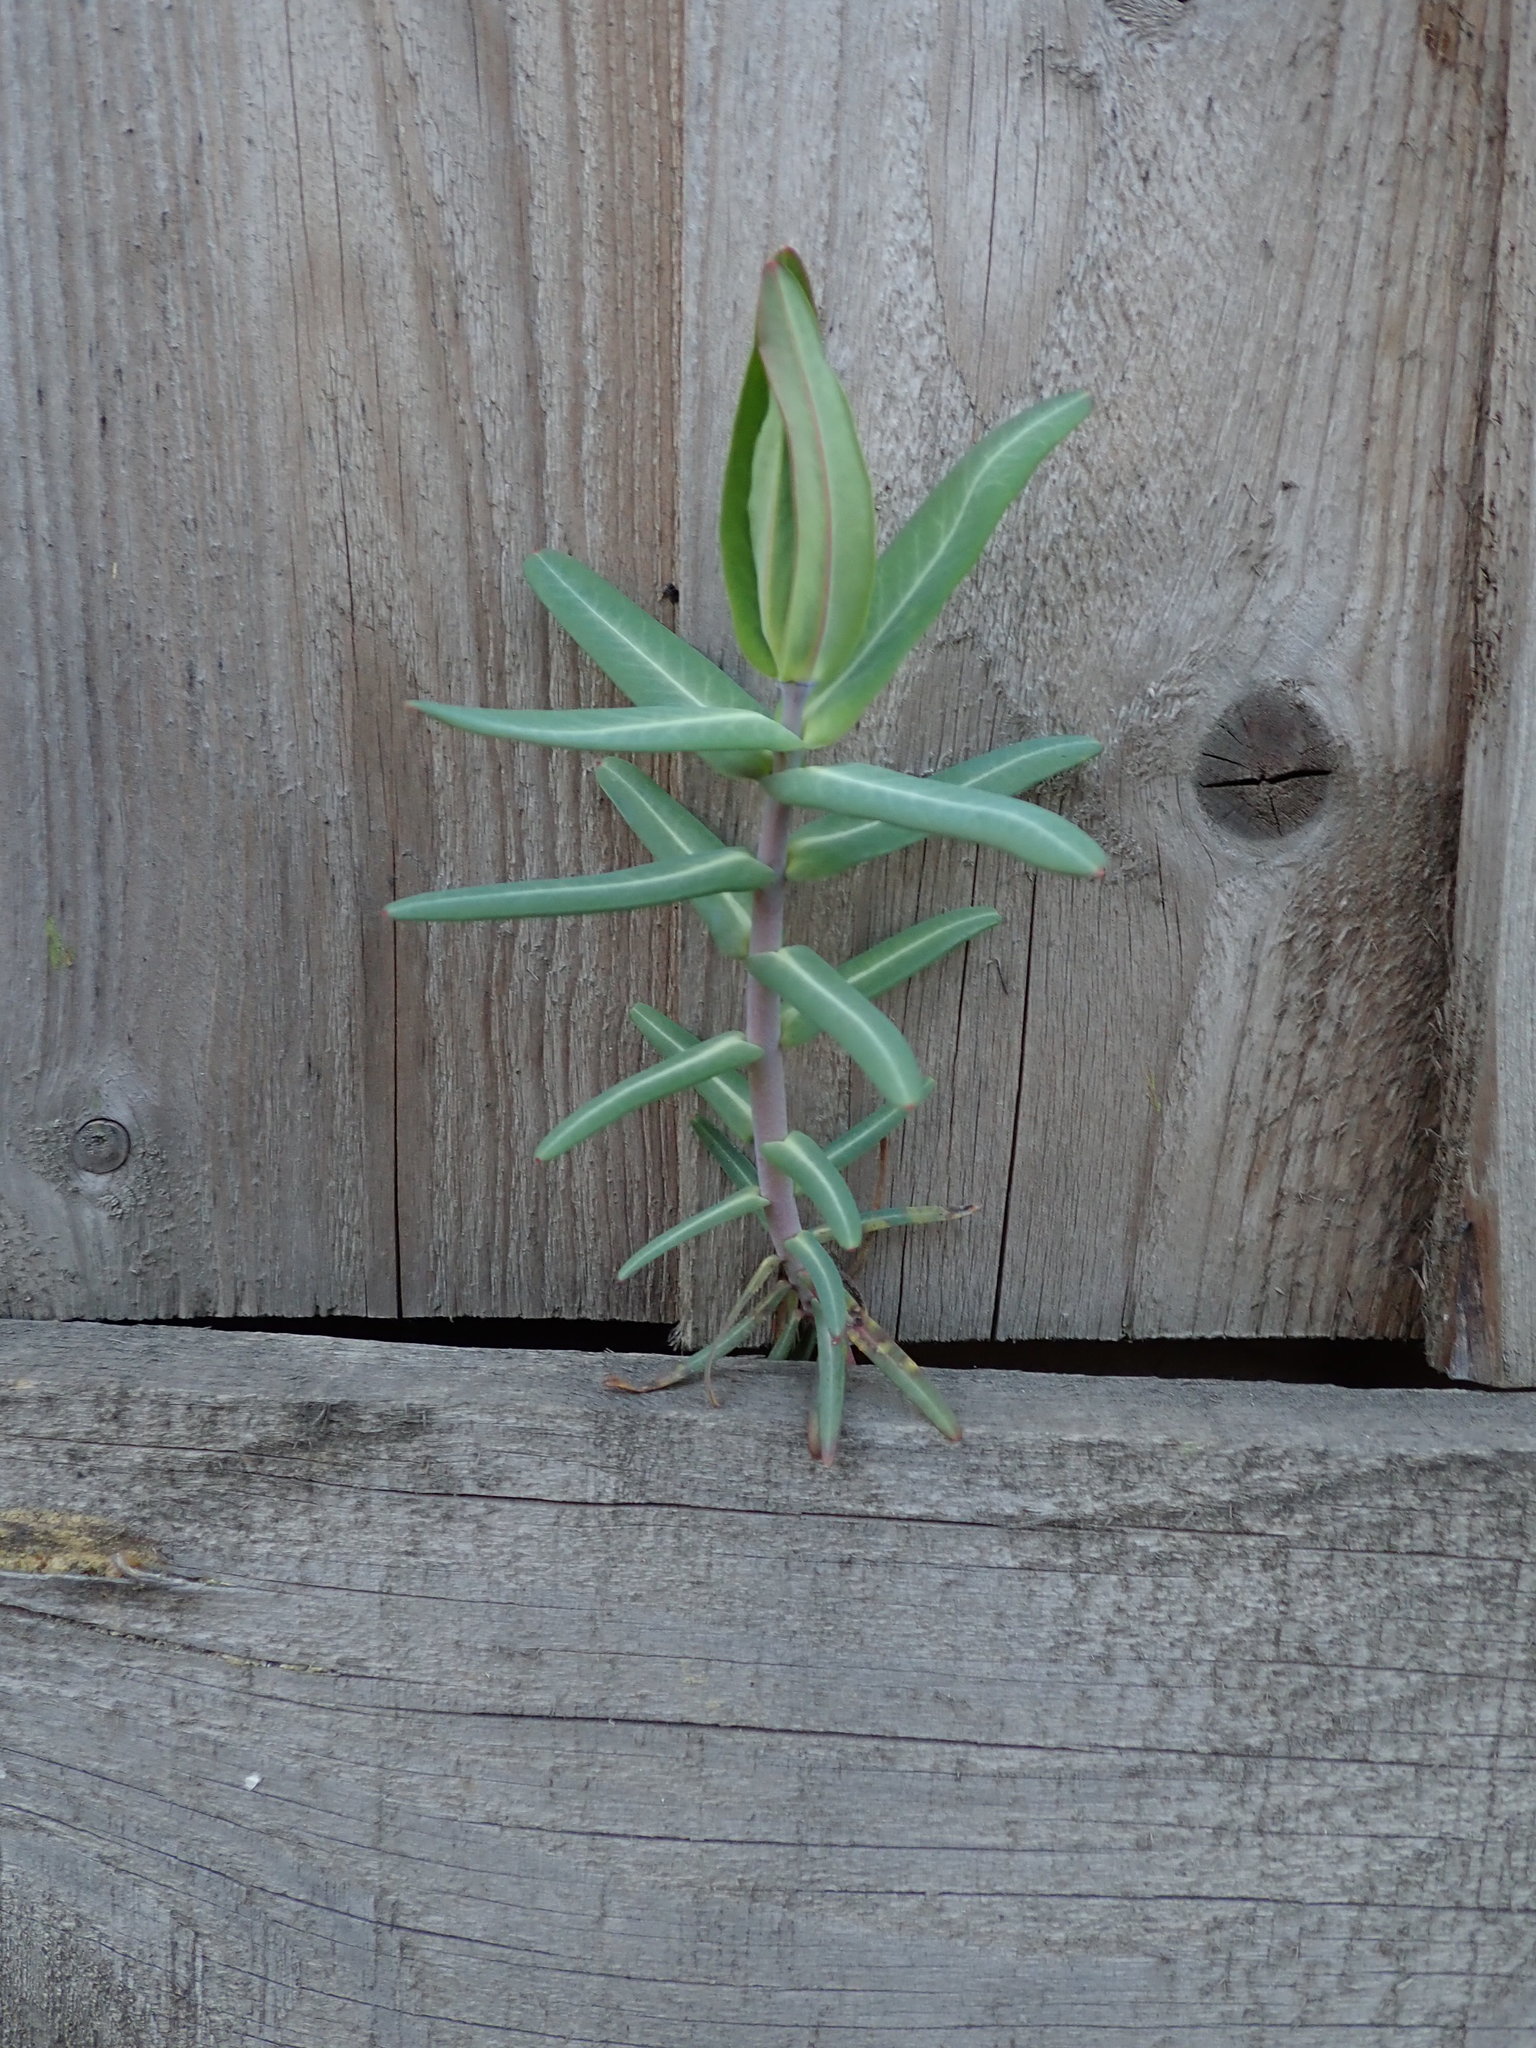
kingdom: Plantae
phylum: Tracheophyta
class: Magnoliopsida
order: Malpighiales
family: Euphorbiaceae
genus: Euphorbia
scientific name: Euphorbia lathyris
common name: Caper spurge
